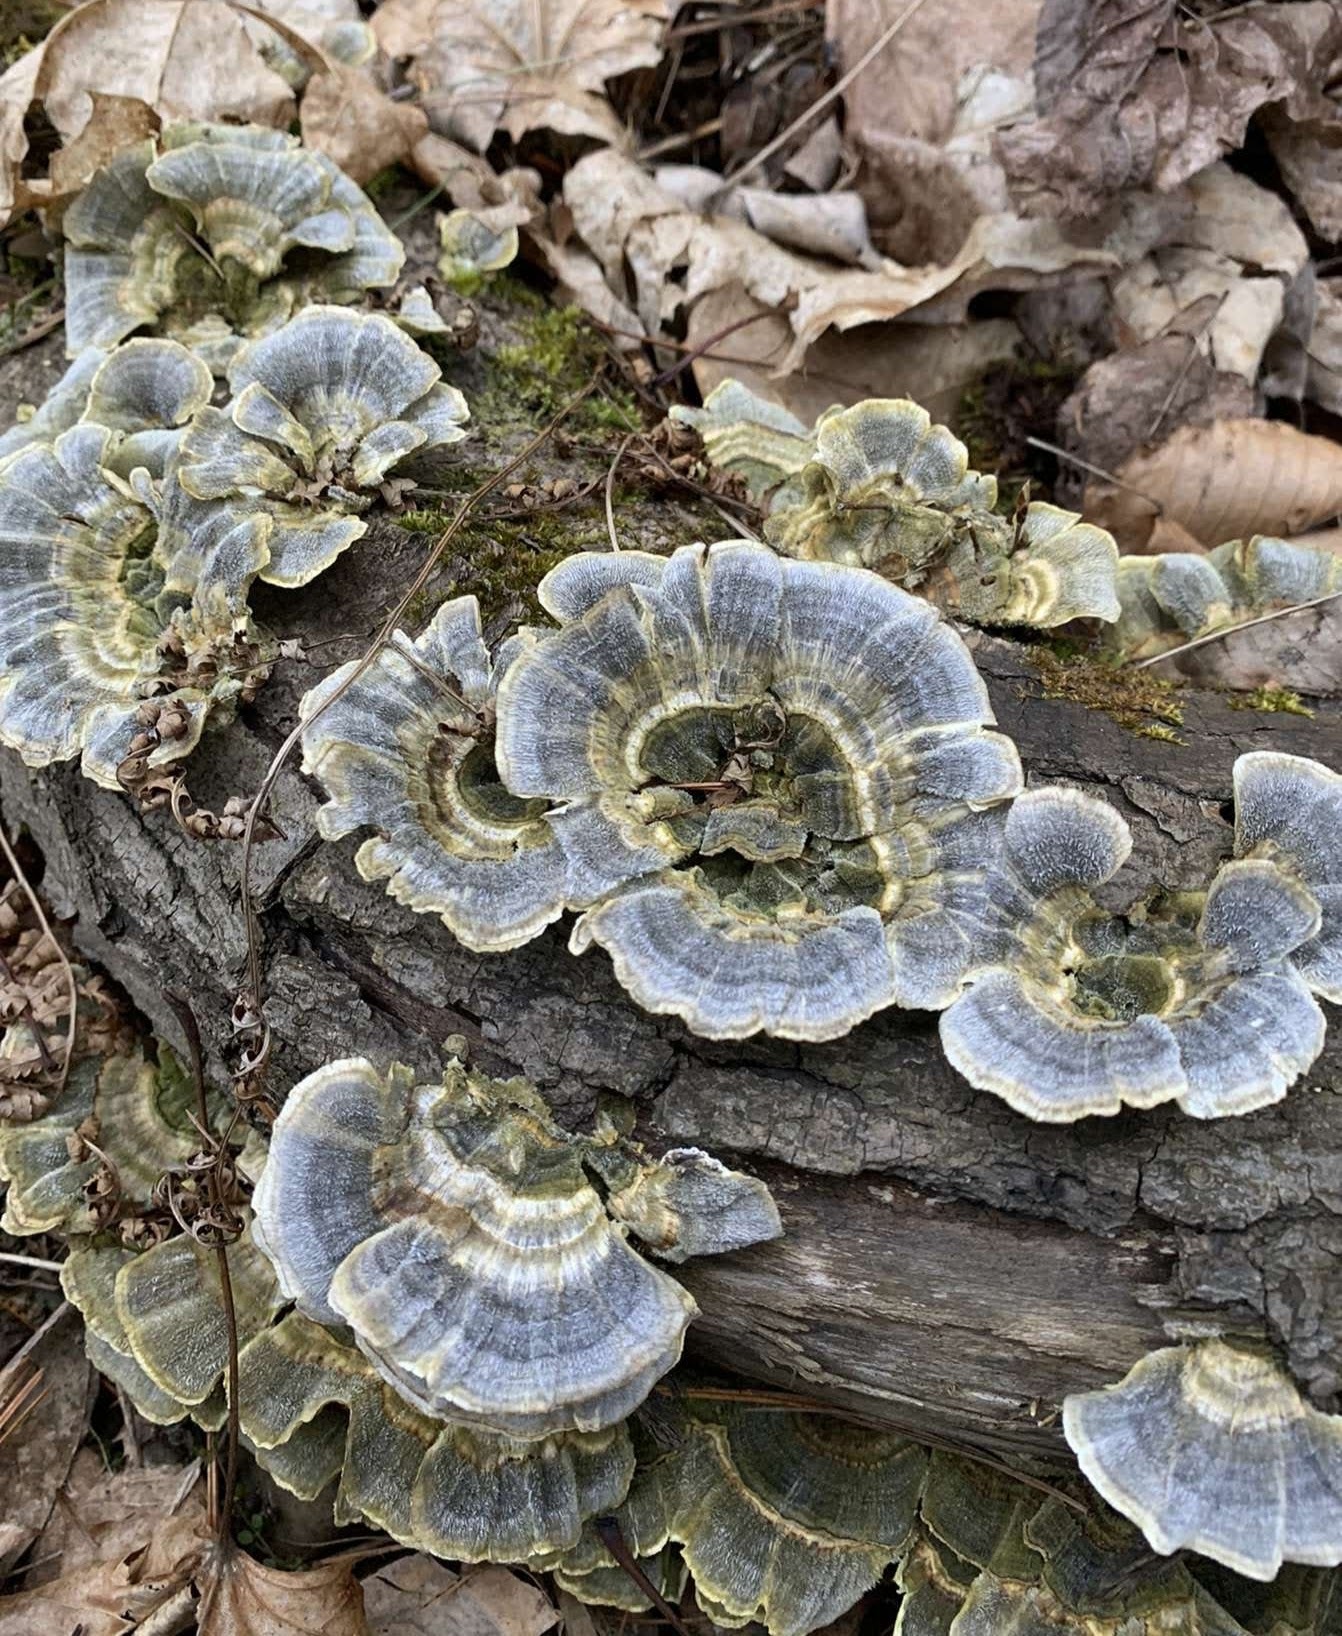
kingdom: Fungi
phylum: Basidiomycota
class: Agaricomycetes
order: Polyporales
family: Polyporaceae
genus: Trametes
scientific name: Trametes versicolor
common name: Turkeytail
